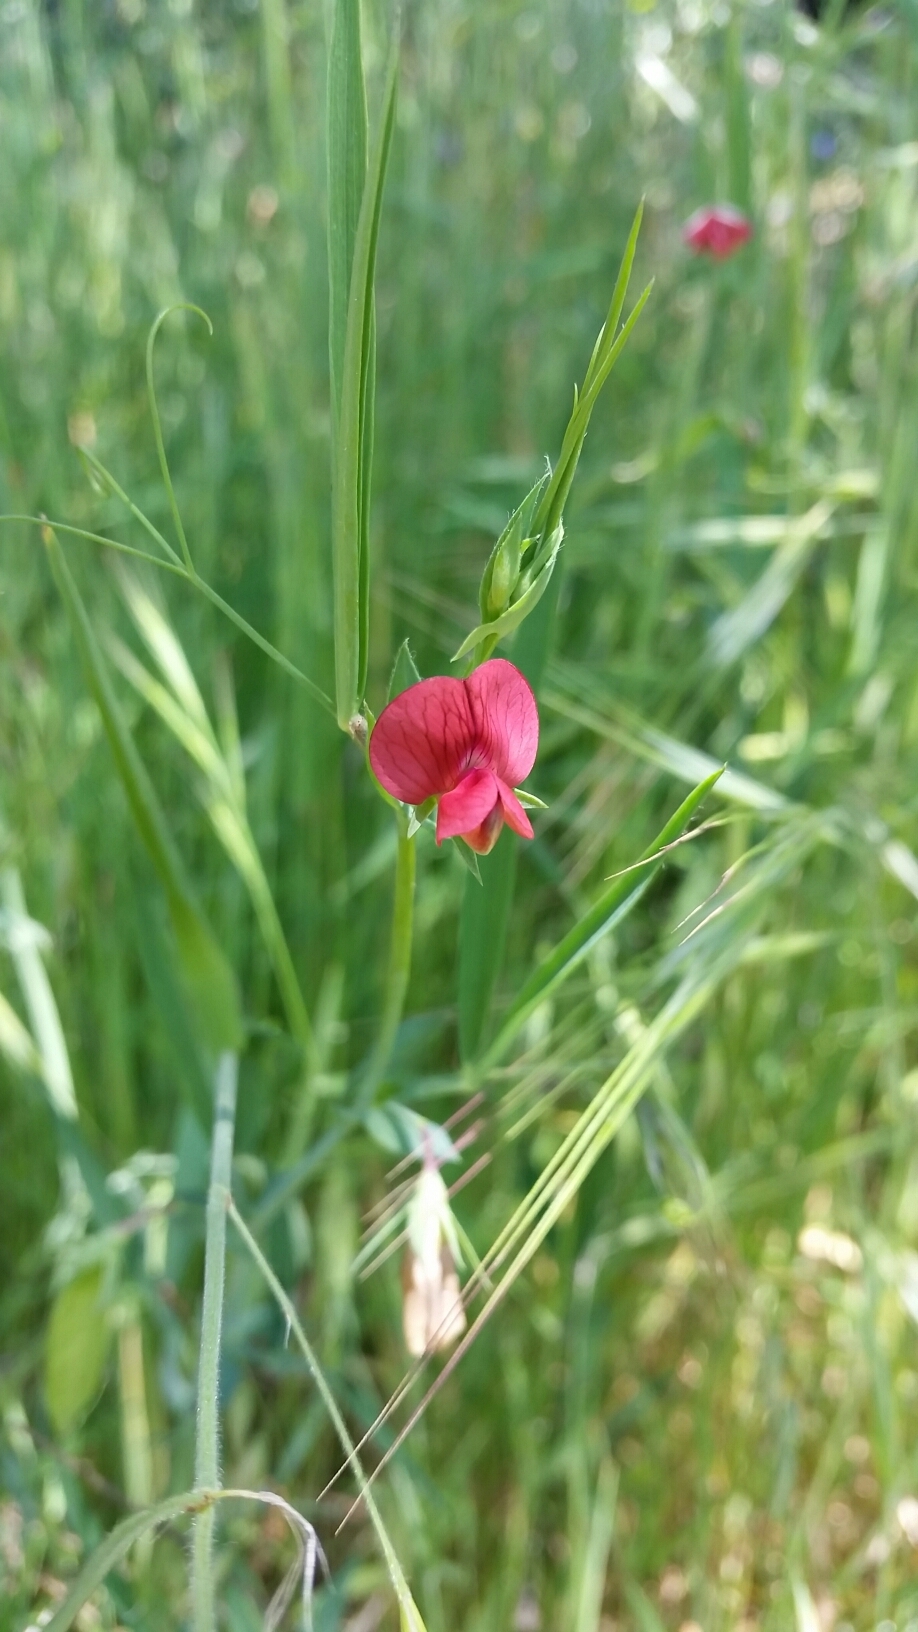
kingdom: Plantae
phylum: Tracheophyta
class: Magnoliopsida
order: Fabales
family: Fabaceae
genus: Lathyrus
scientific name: Lathyrus cicera
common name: Red vetchling
